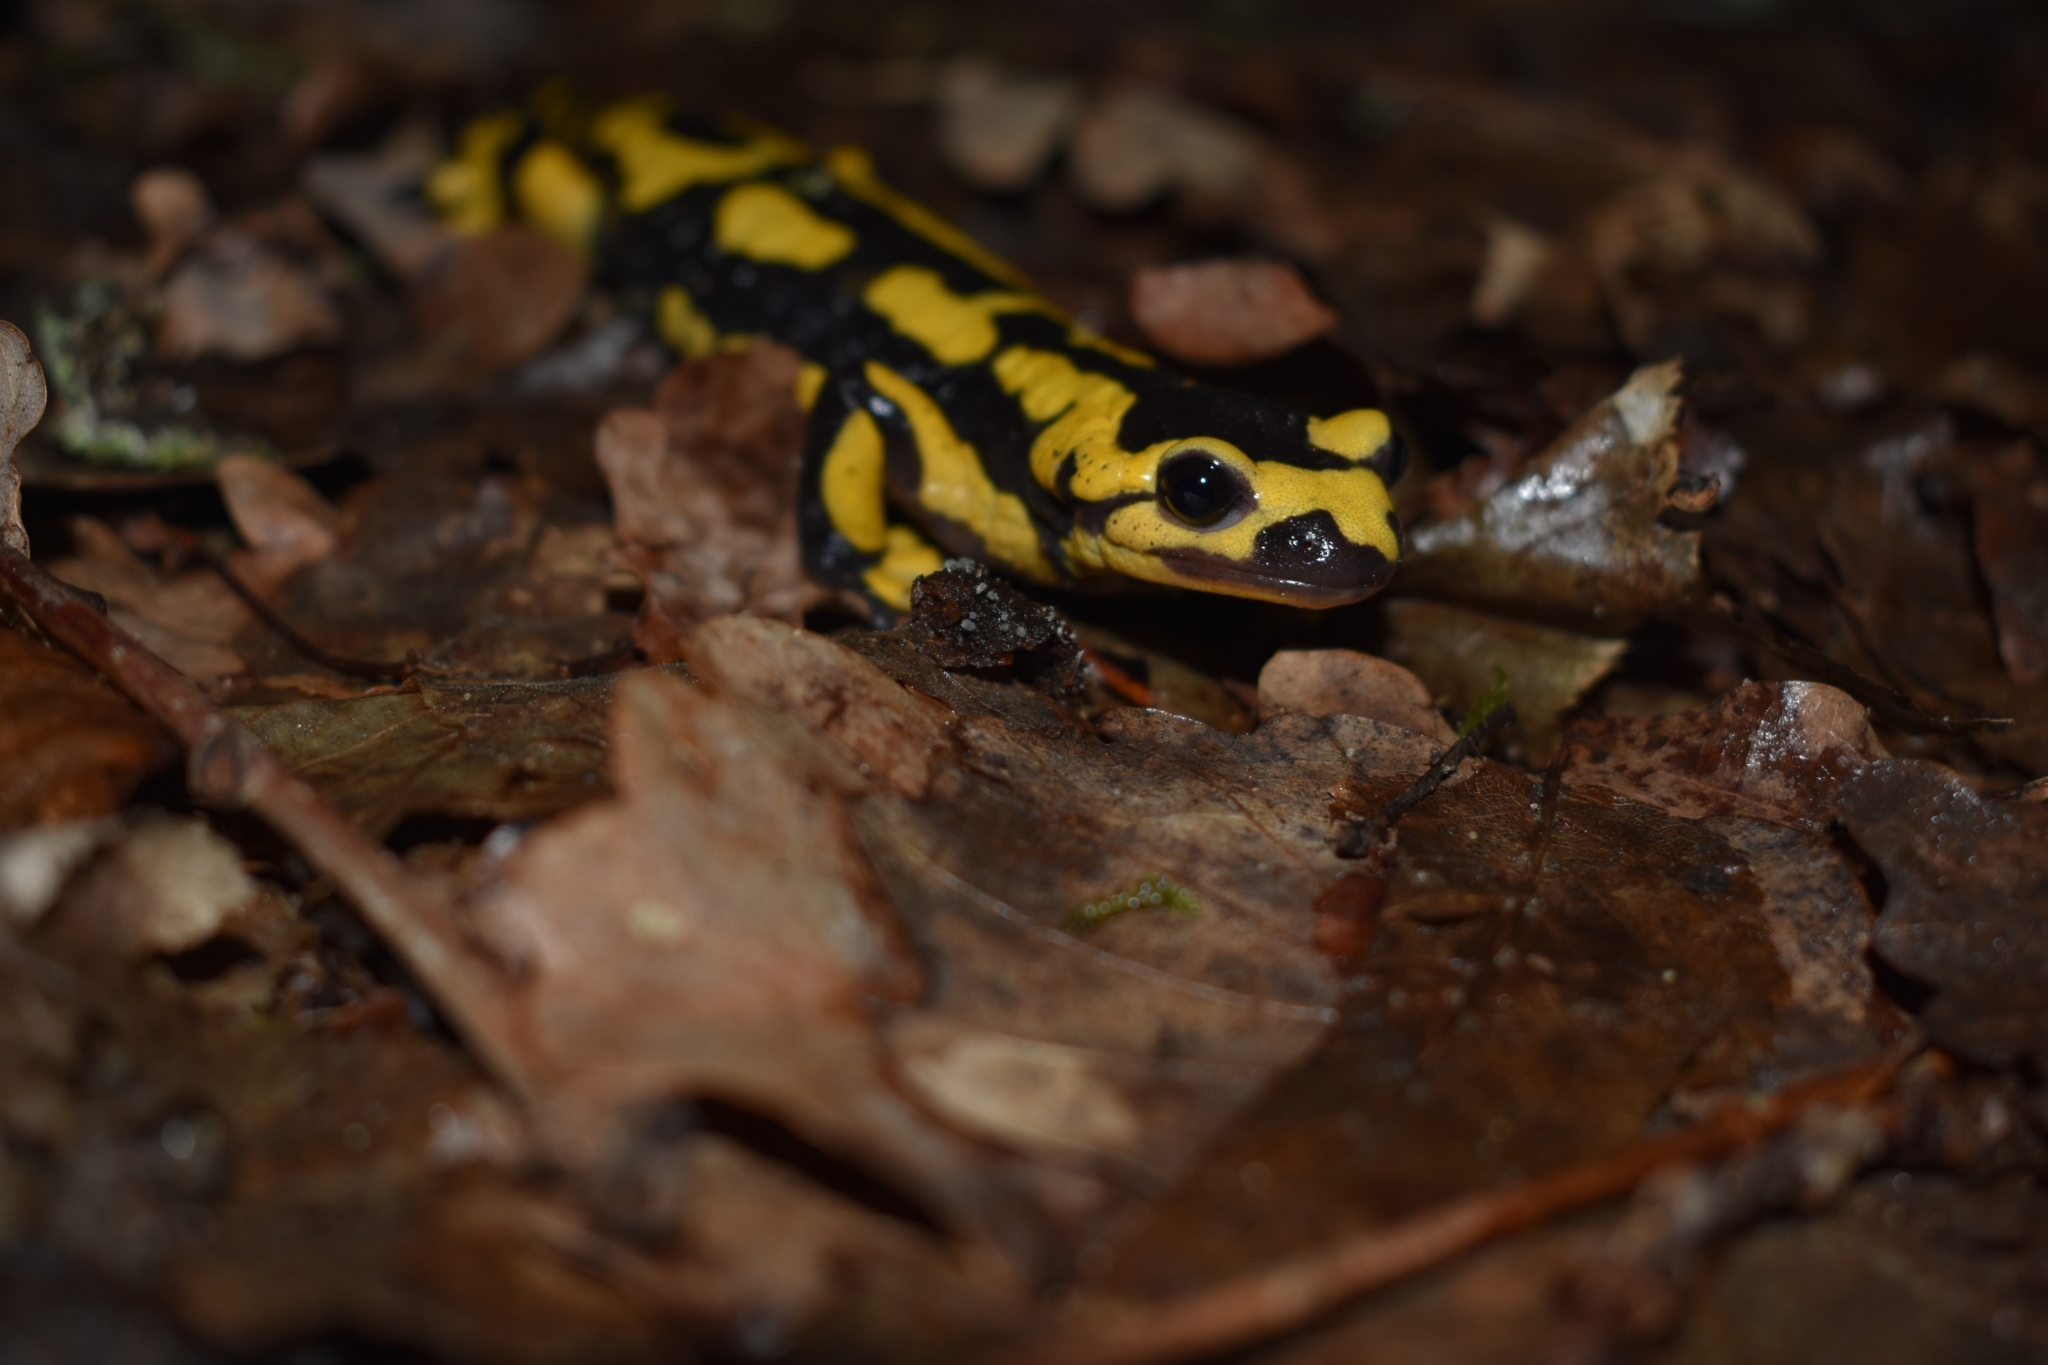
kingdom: Animalia
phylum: Chordata
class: Amphibia
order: Caudata
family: Salamandridae
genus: Salamandra
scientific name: Salamandra salamandra
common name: Fire salamander
